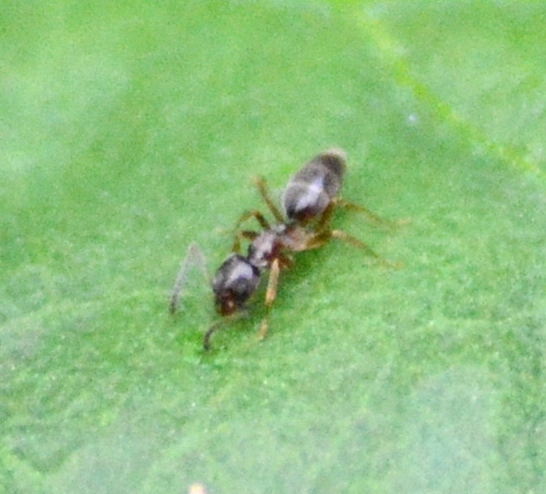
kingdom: Animalia
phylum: Arthropoda
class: Insecta
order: Hymenoptera
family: Formicidae
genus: Tapinoma
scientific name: Tapinoma sessile
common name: Odorous house ant
